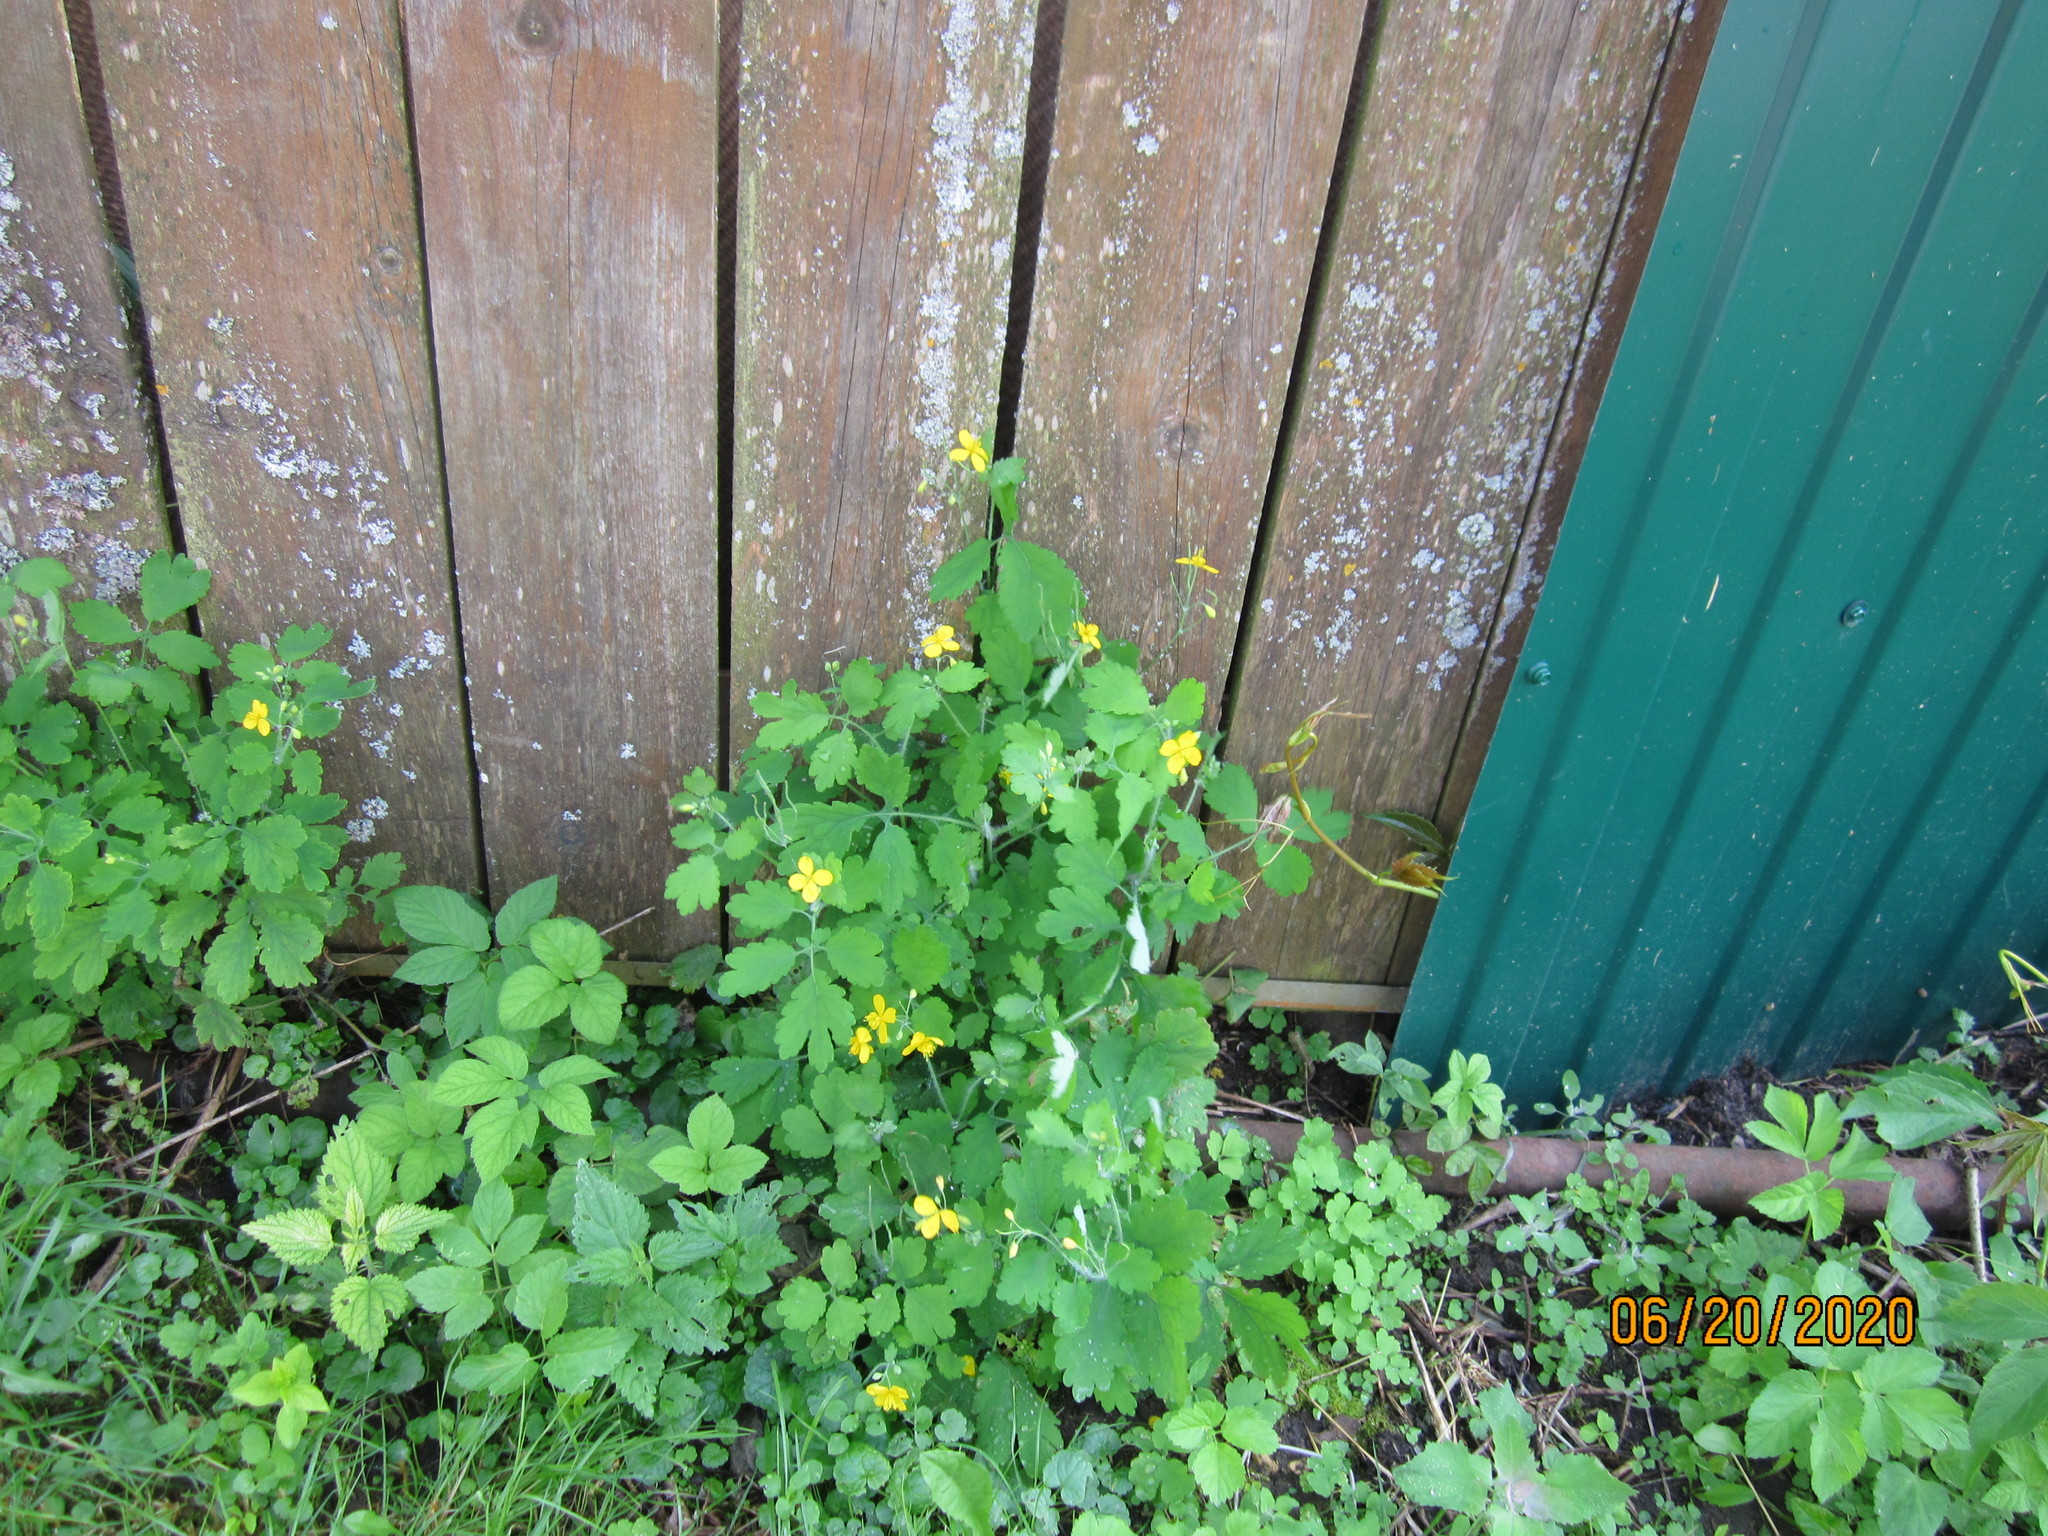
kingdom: Plantae
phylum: Tracheophyta
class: Magnoliopsida
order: Ranunculales
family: Papaveraceae
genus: Chelidonium
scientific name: Chelidonium majus
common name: Greater celandine
